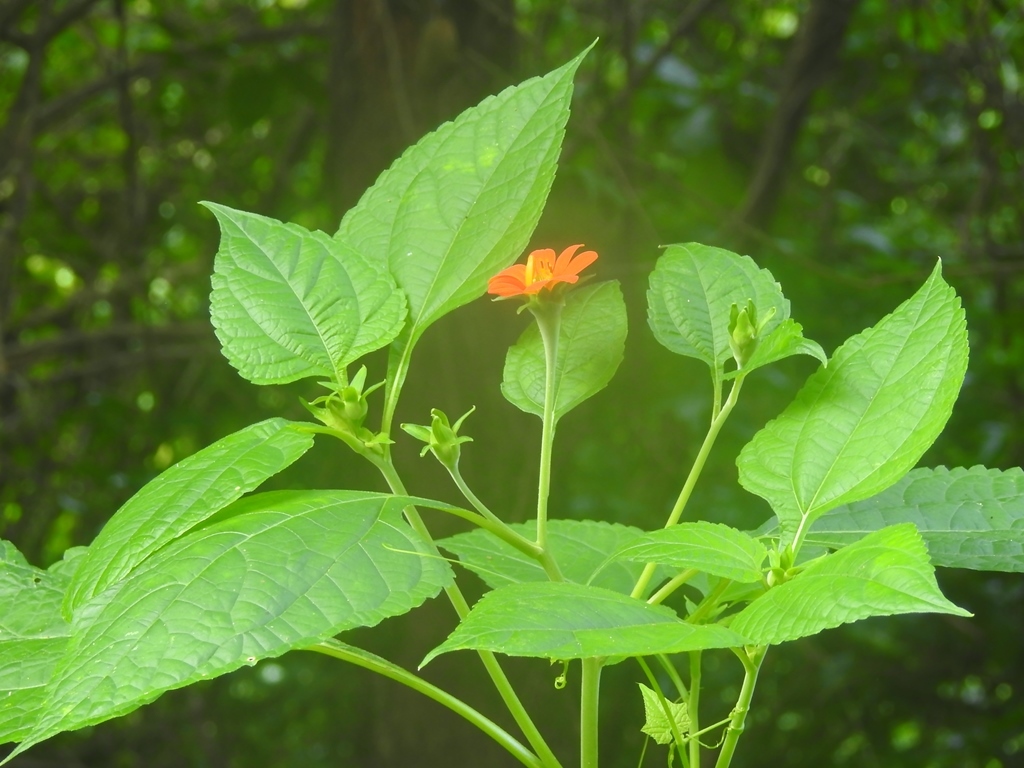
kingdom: Plantae
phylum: Tracheophyta
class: Magnoliopsida
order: Asterales
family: Asteraceae
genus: Tithonia
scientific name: Tithonia rotundifolia
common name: Sunflower
